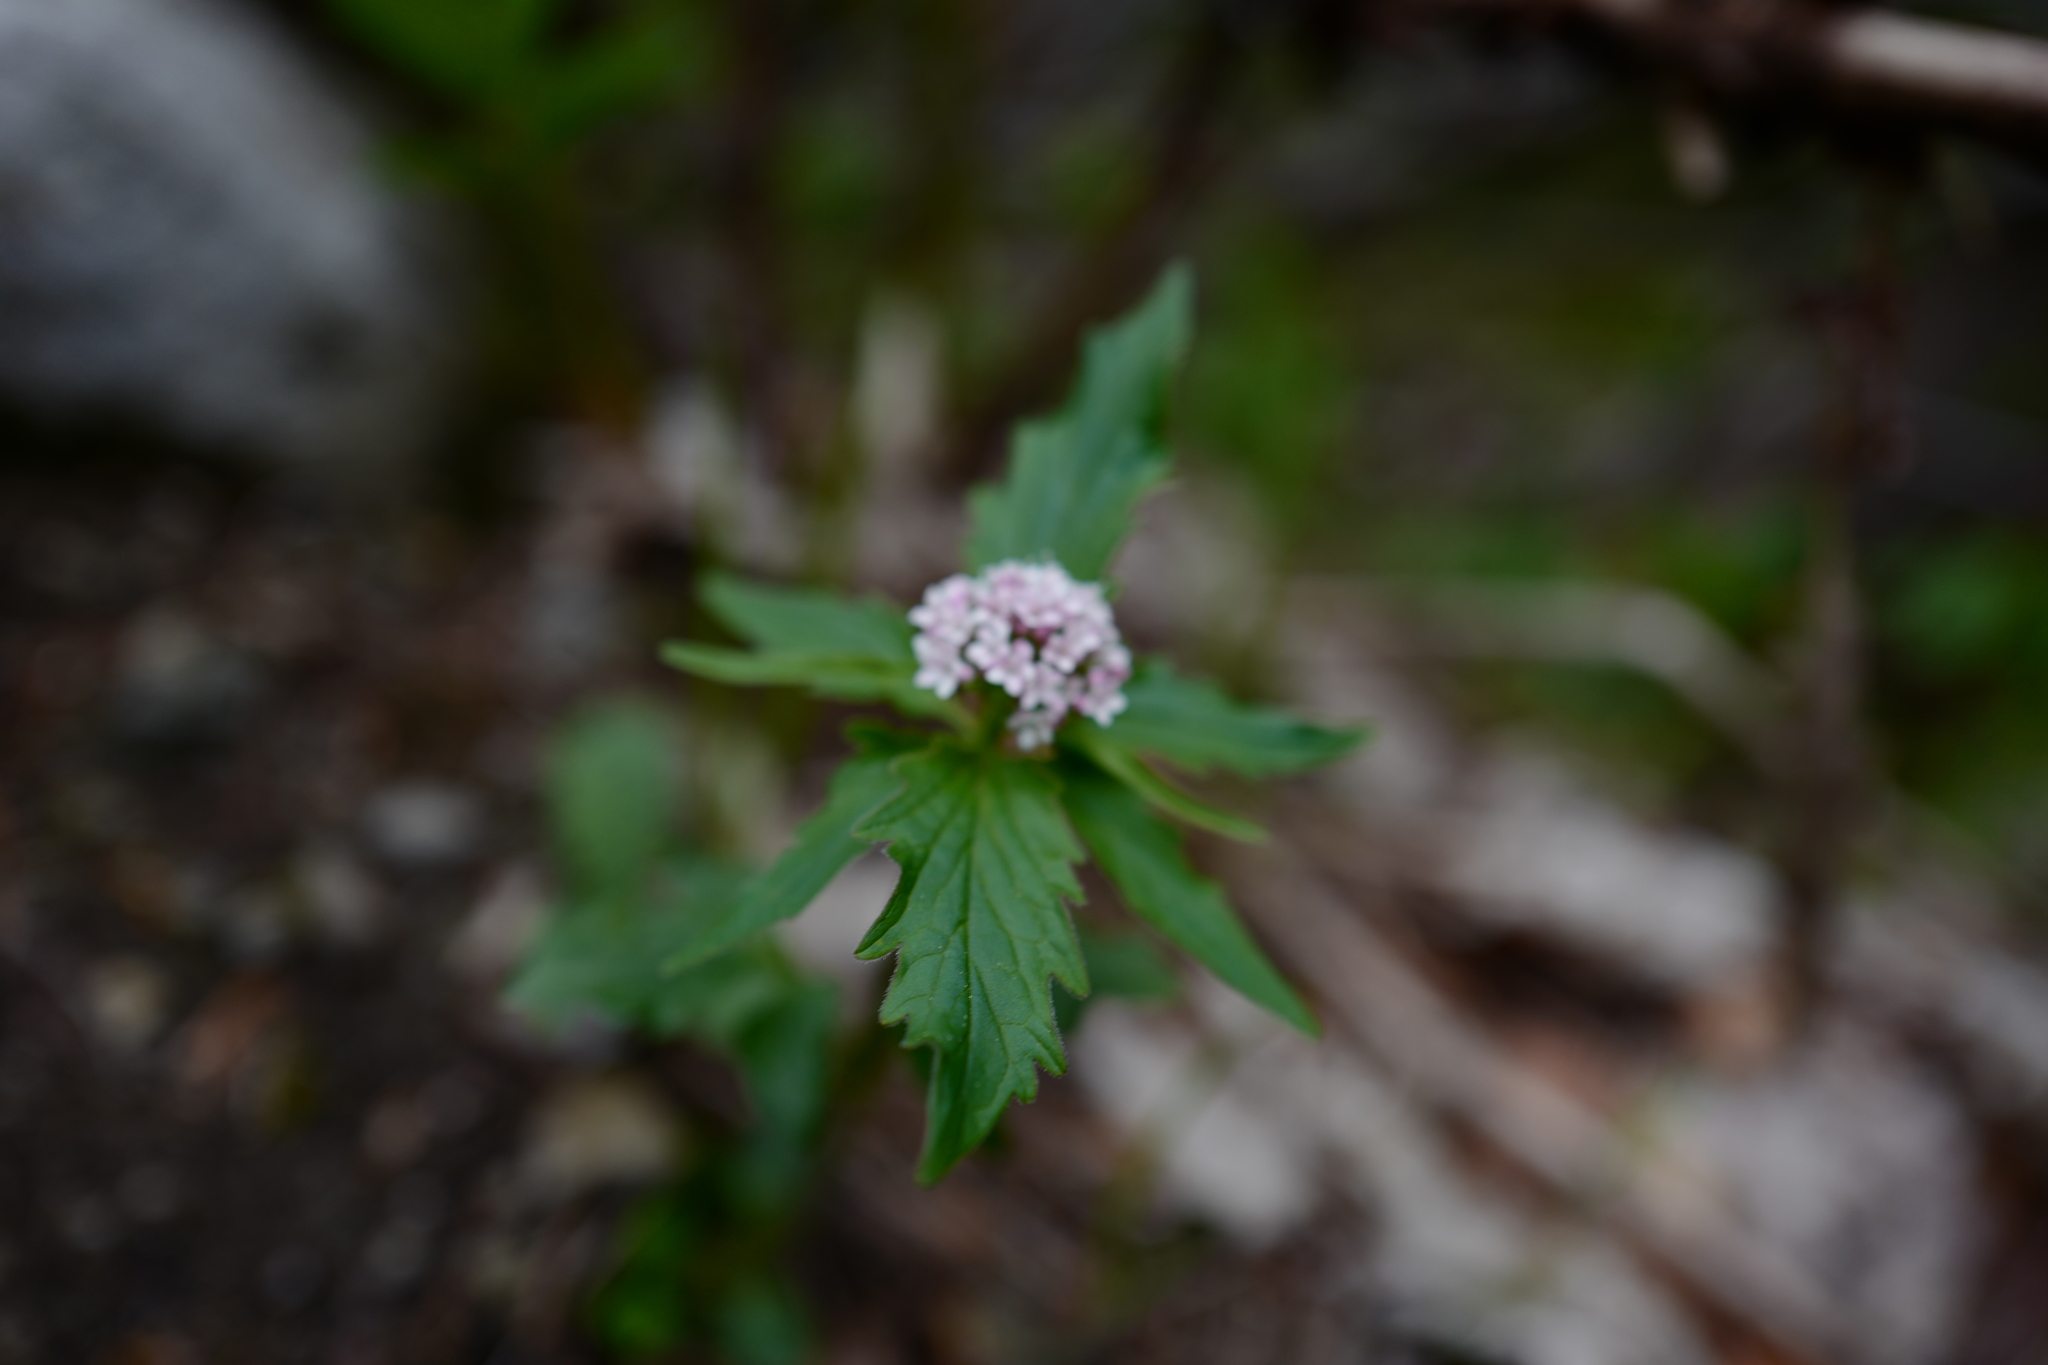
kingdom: Plantae
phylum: Tracheophyta
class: Magnoliopsida
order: Dipsacales
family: Caprifoliaceae
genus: Valeriana
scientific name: Valeriana tripteris
